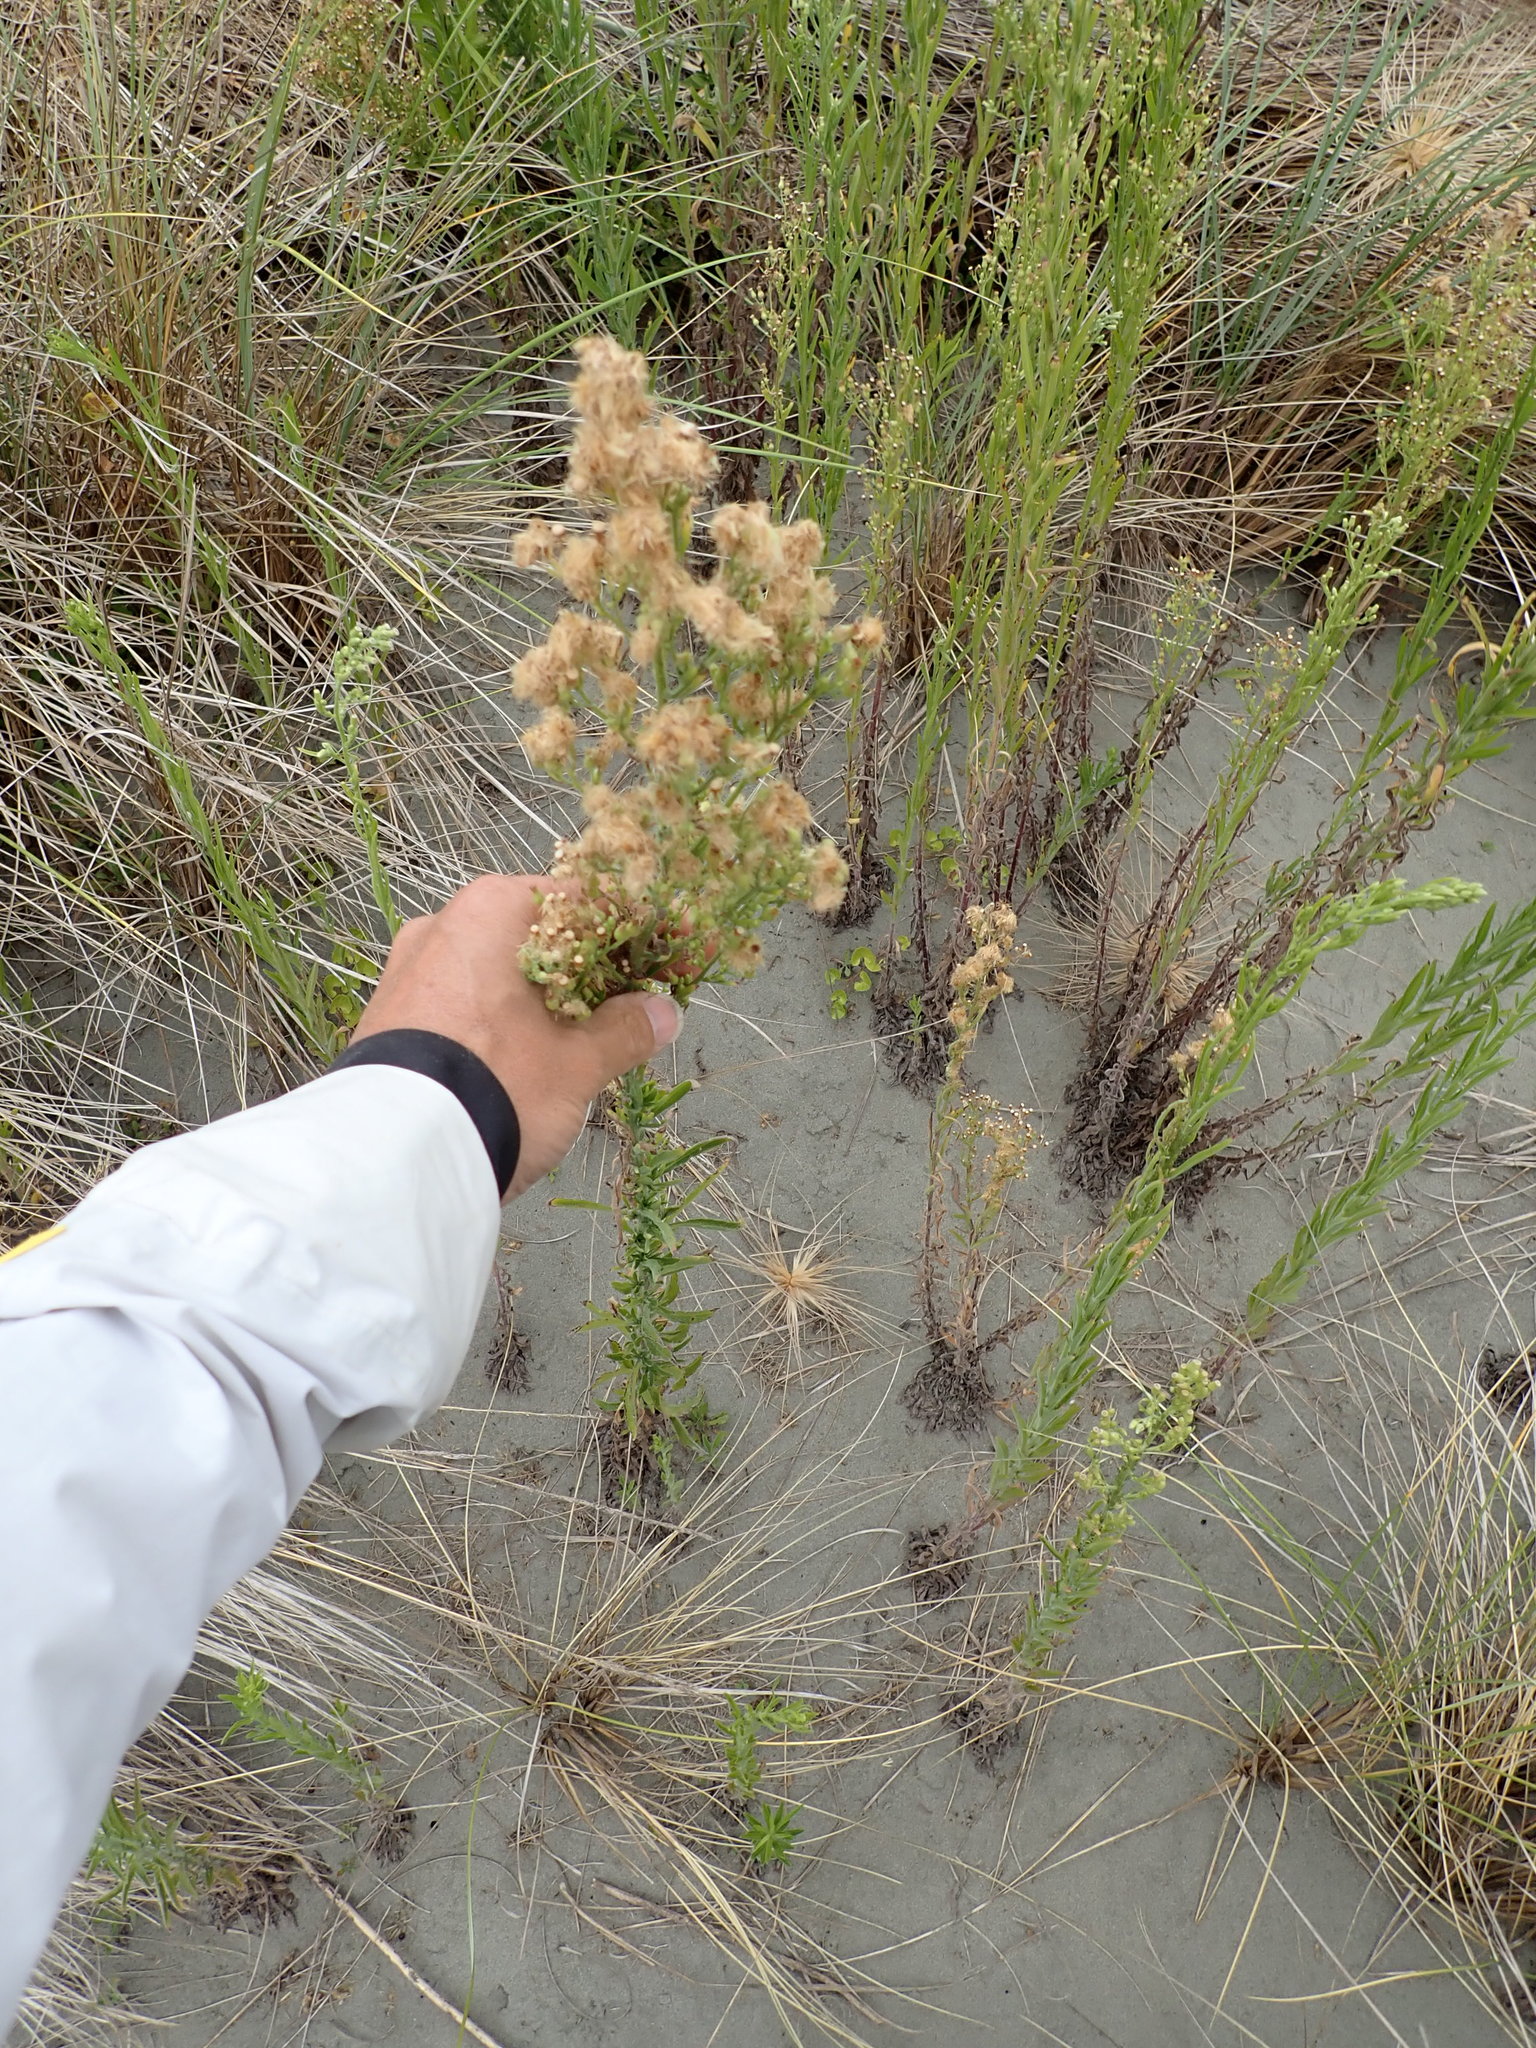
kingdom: Plantae
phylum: Tracheophyta
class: Magnoliopsida
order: Asterales
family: Asteraceae
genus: Erigeron
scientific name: Erigeron sumatrensis
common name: Daisy
